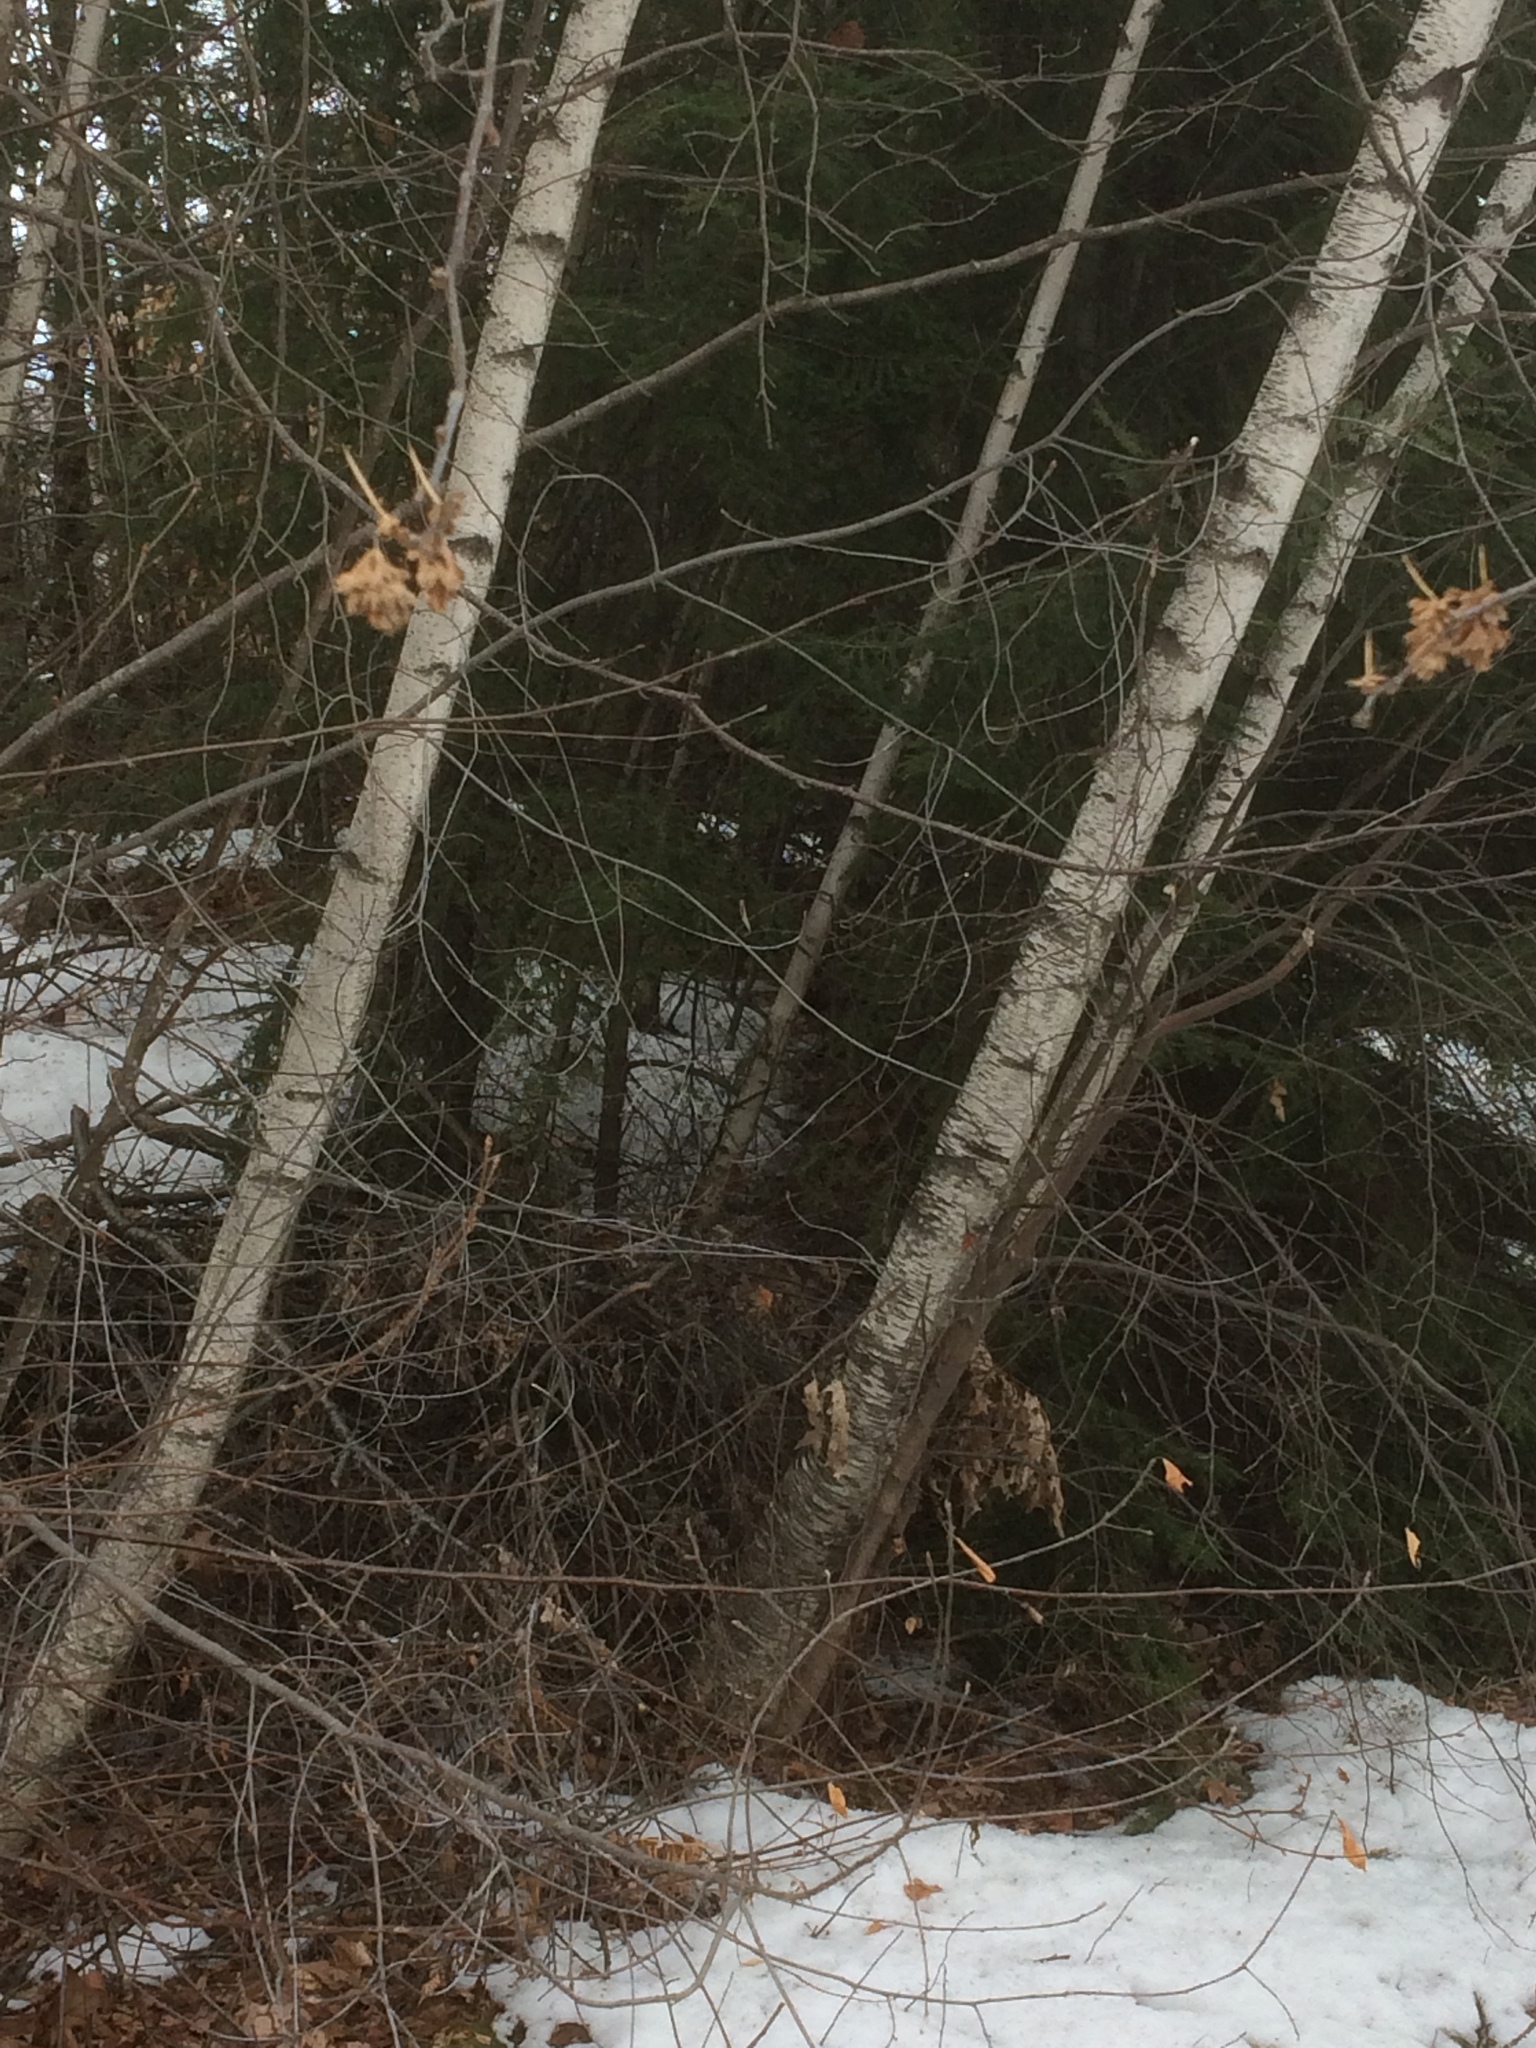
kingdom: Plantae
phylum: Tracheophyta
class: Magnoliopsida
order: Fagales
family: Betulaceae
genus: Betula
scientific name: Betula populifolia
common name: Fire birch
